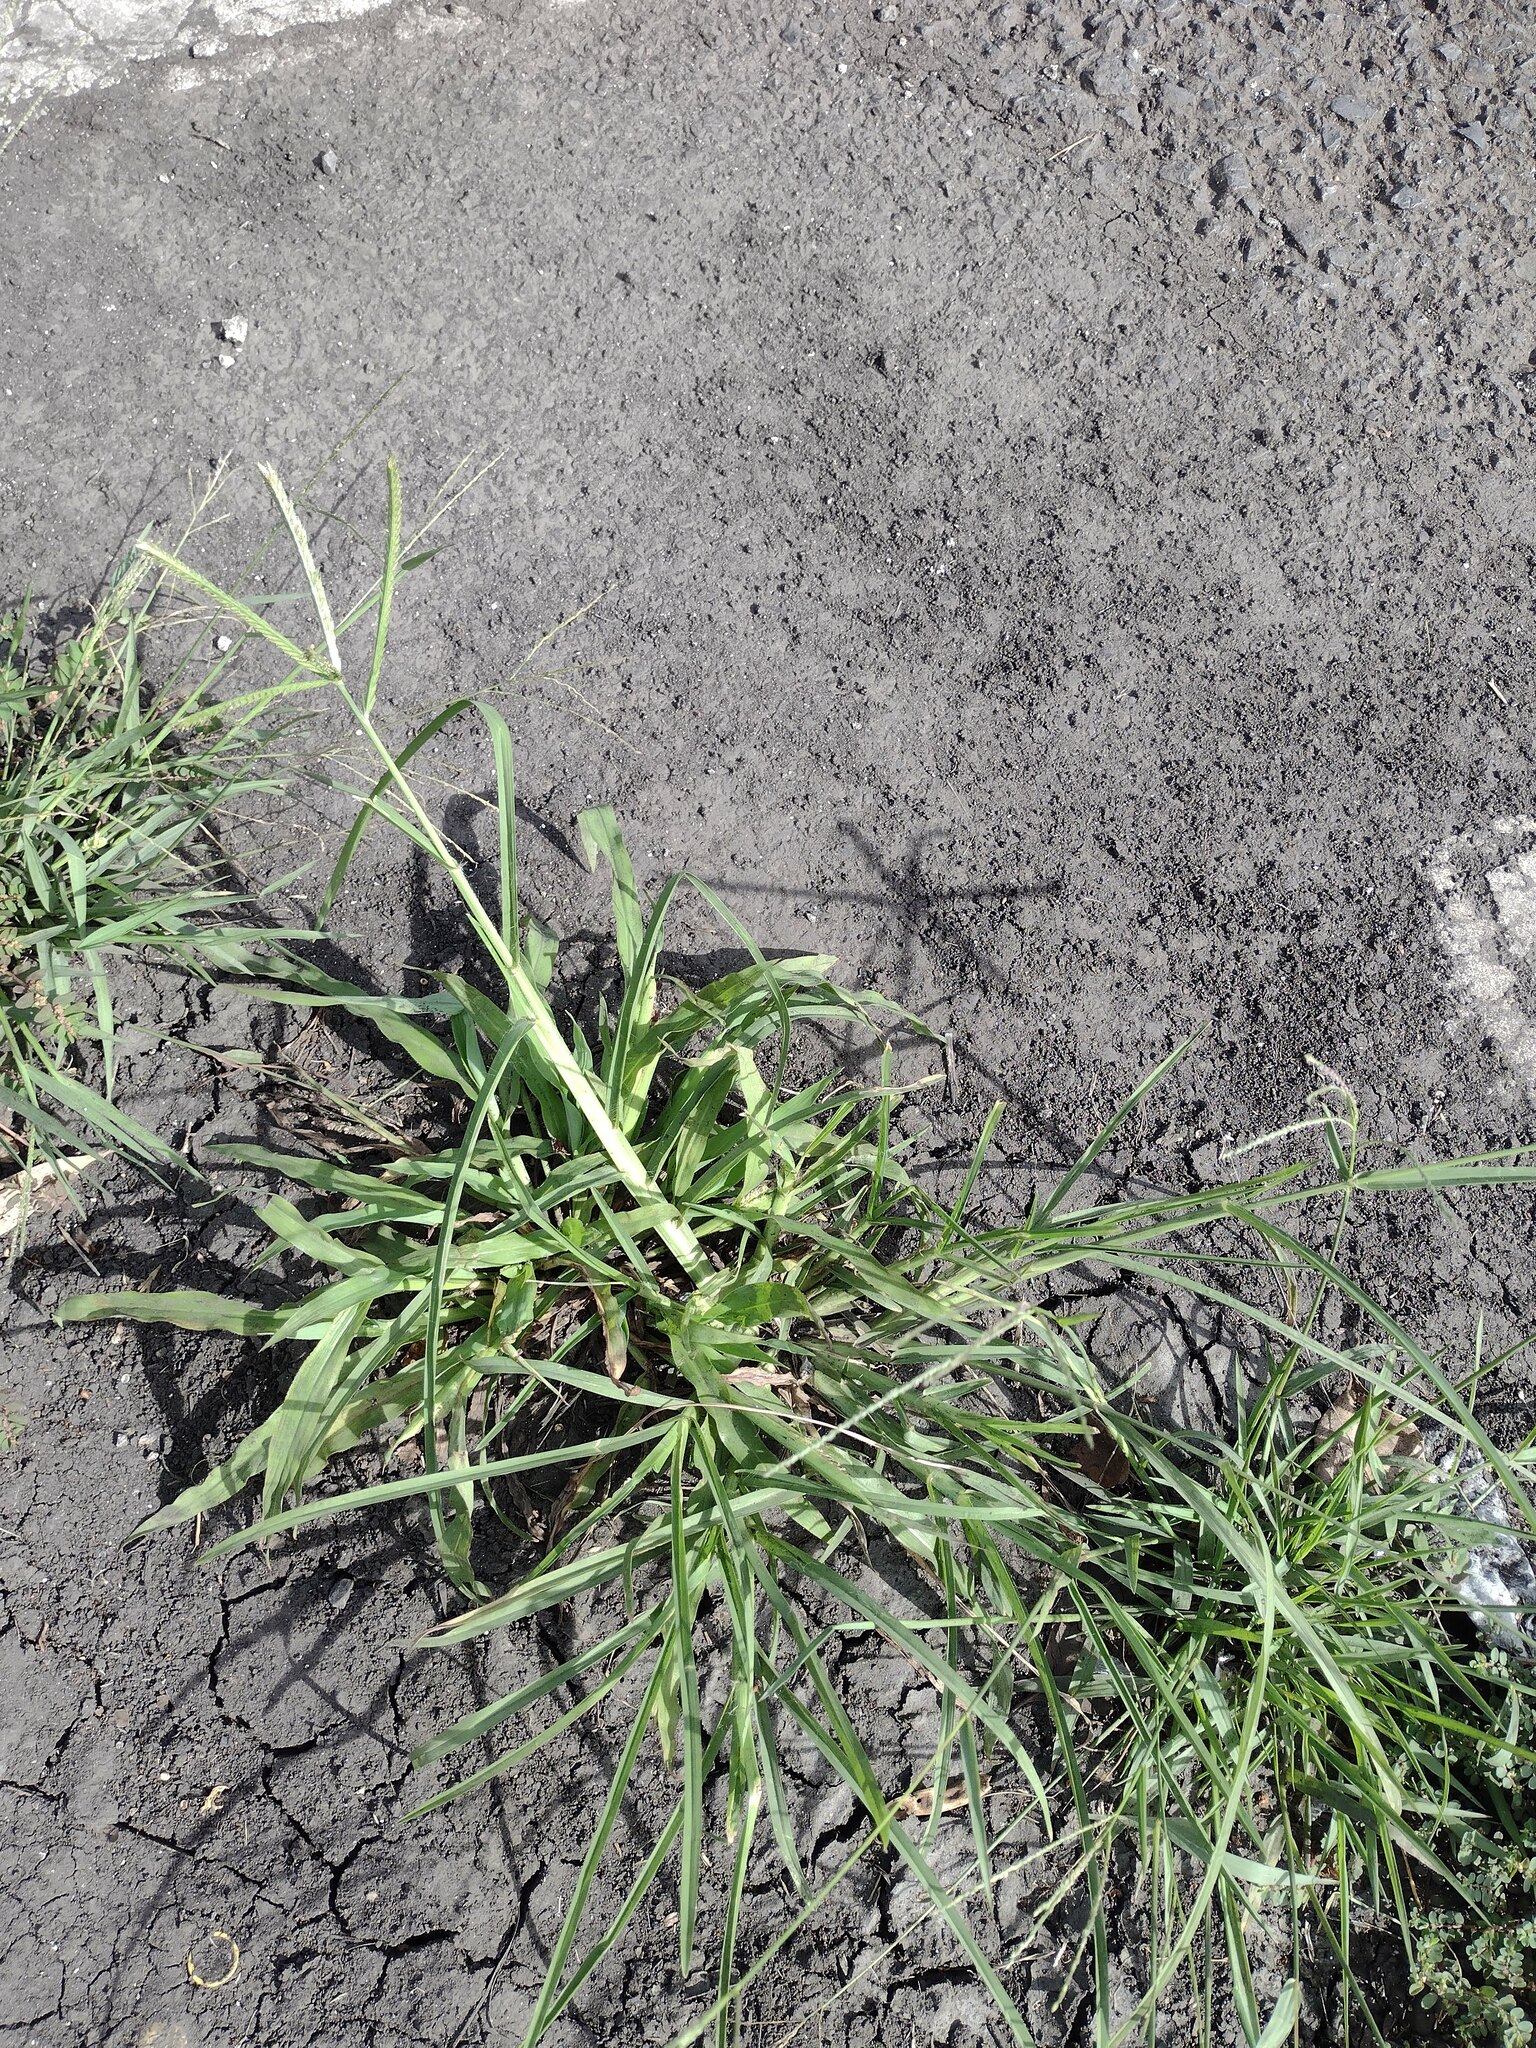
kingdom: Plantae
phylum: Tracheophyta
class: Liliopsida
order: Poales
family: Poaceae
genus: Eleusine
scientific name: Eleusine indica
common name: Yard-grass
